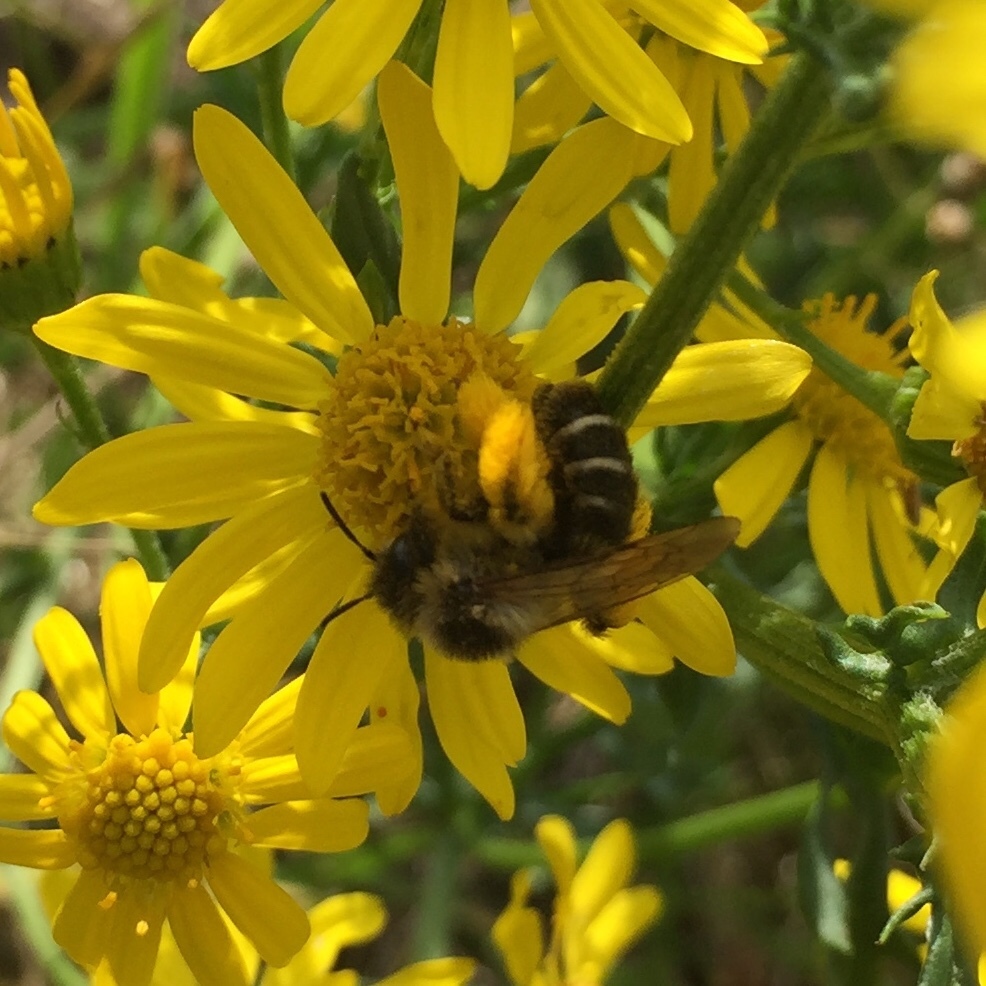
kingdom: Animalia
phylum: Arthropoda
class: Insecta
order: Hymenoptera
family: Melittidae
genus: Dasypoda
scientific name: Dasypoda hirtipes
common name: Pantaloon bee
